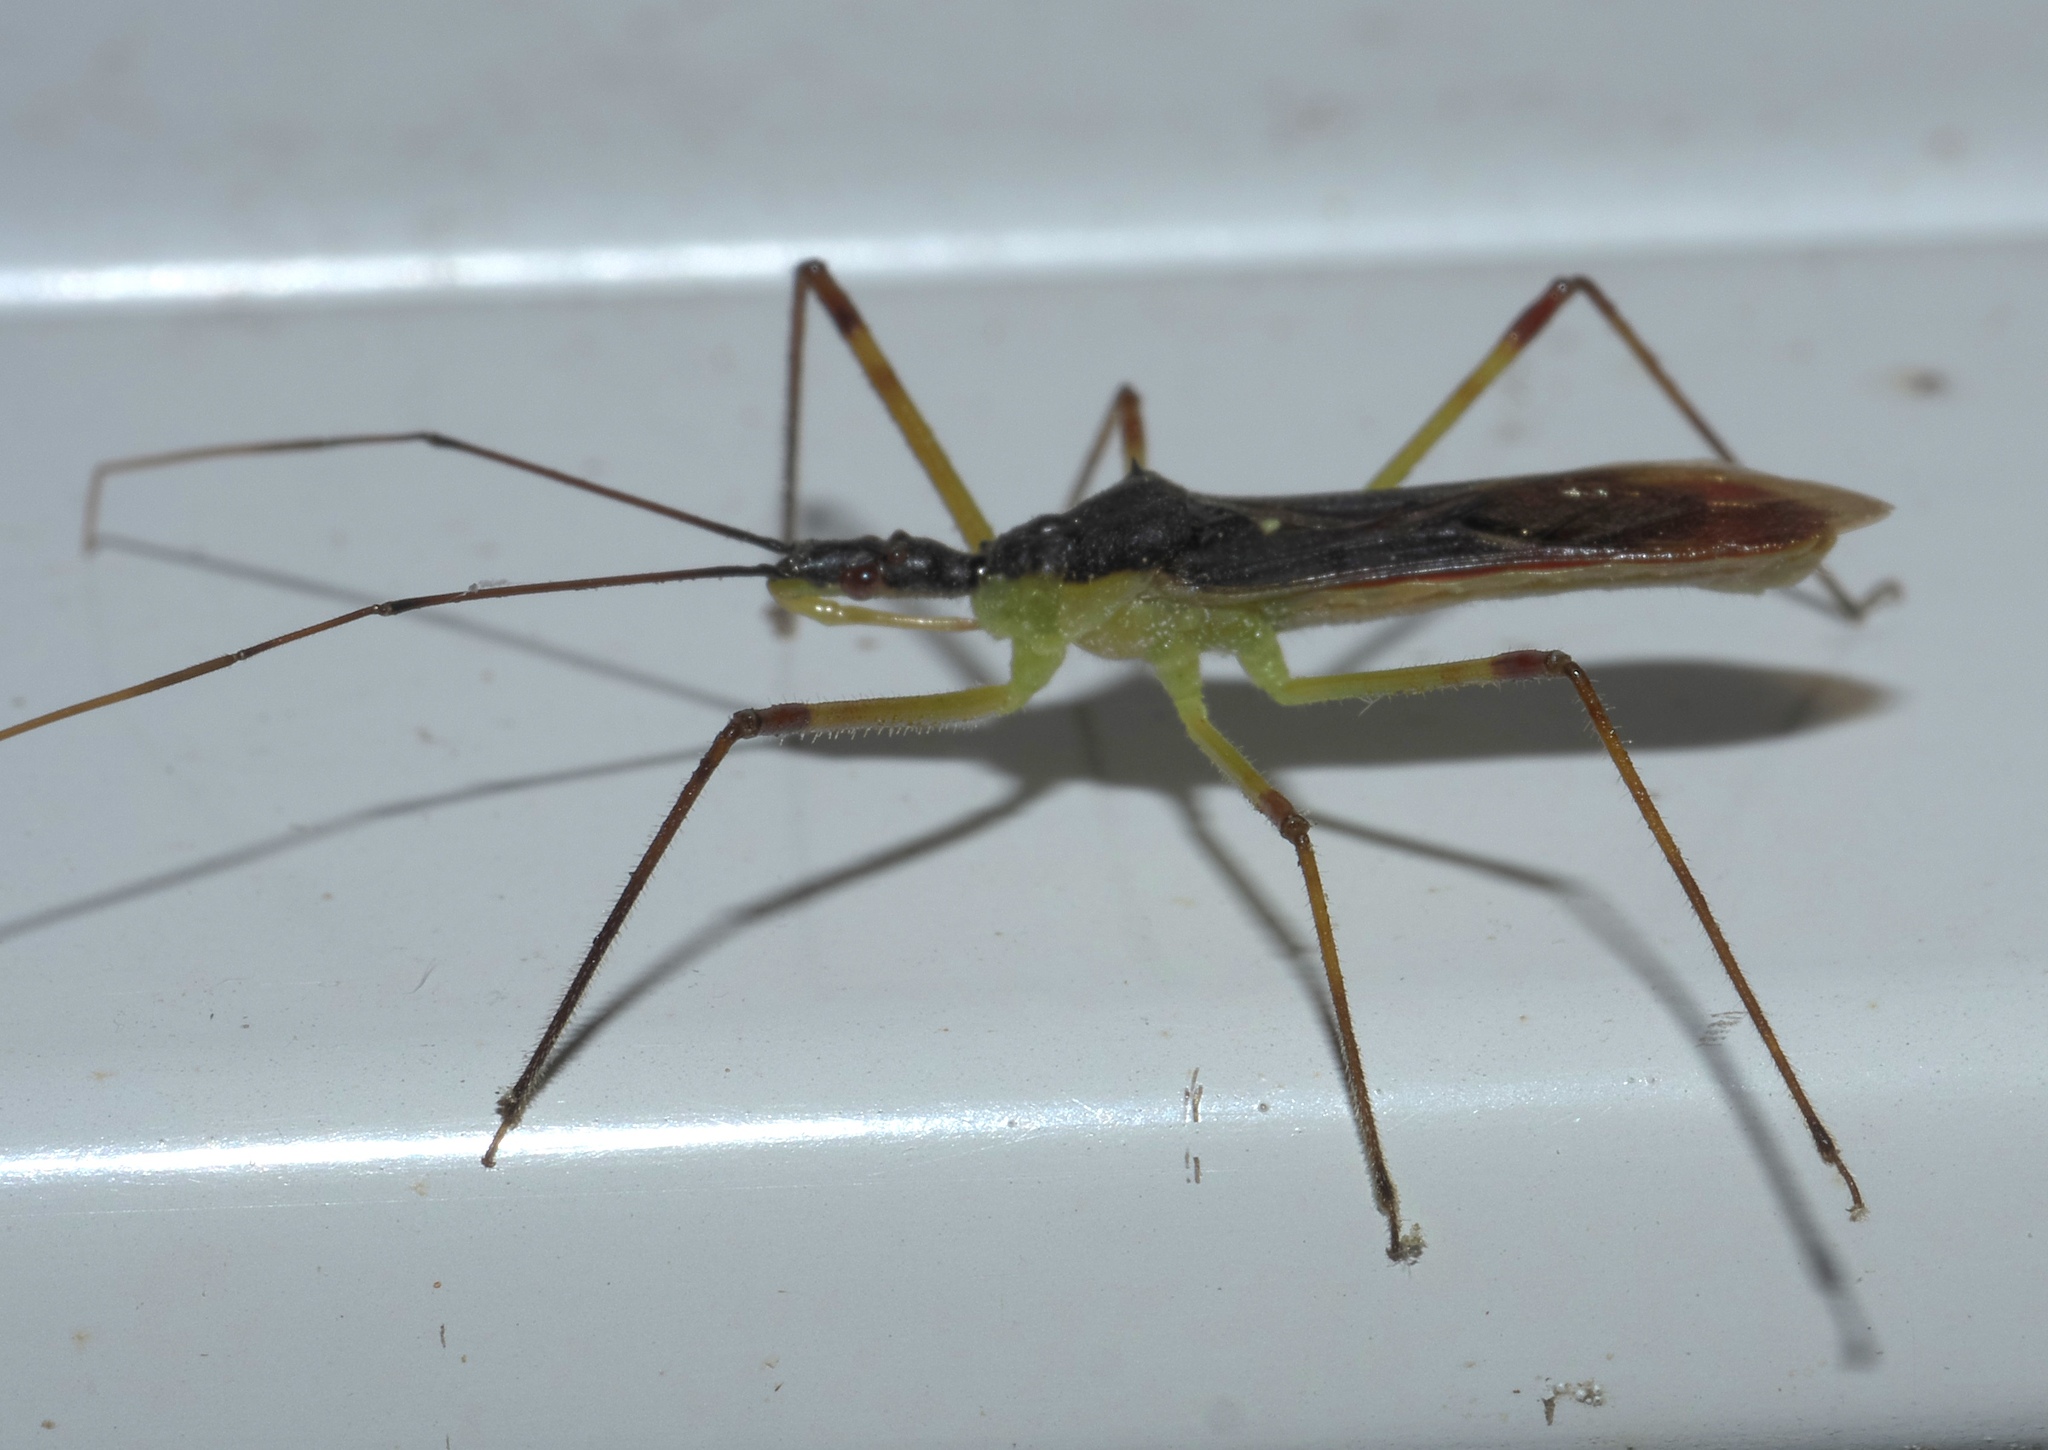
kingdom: Animalia
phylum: Arthropoda
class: Insecta
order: Hemiptera
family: Reduviidae
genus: Zelus
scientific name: Zelus luridus
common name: Pale green assassin bug
